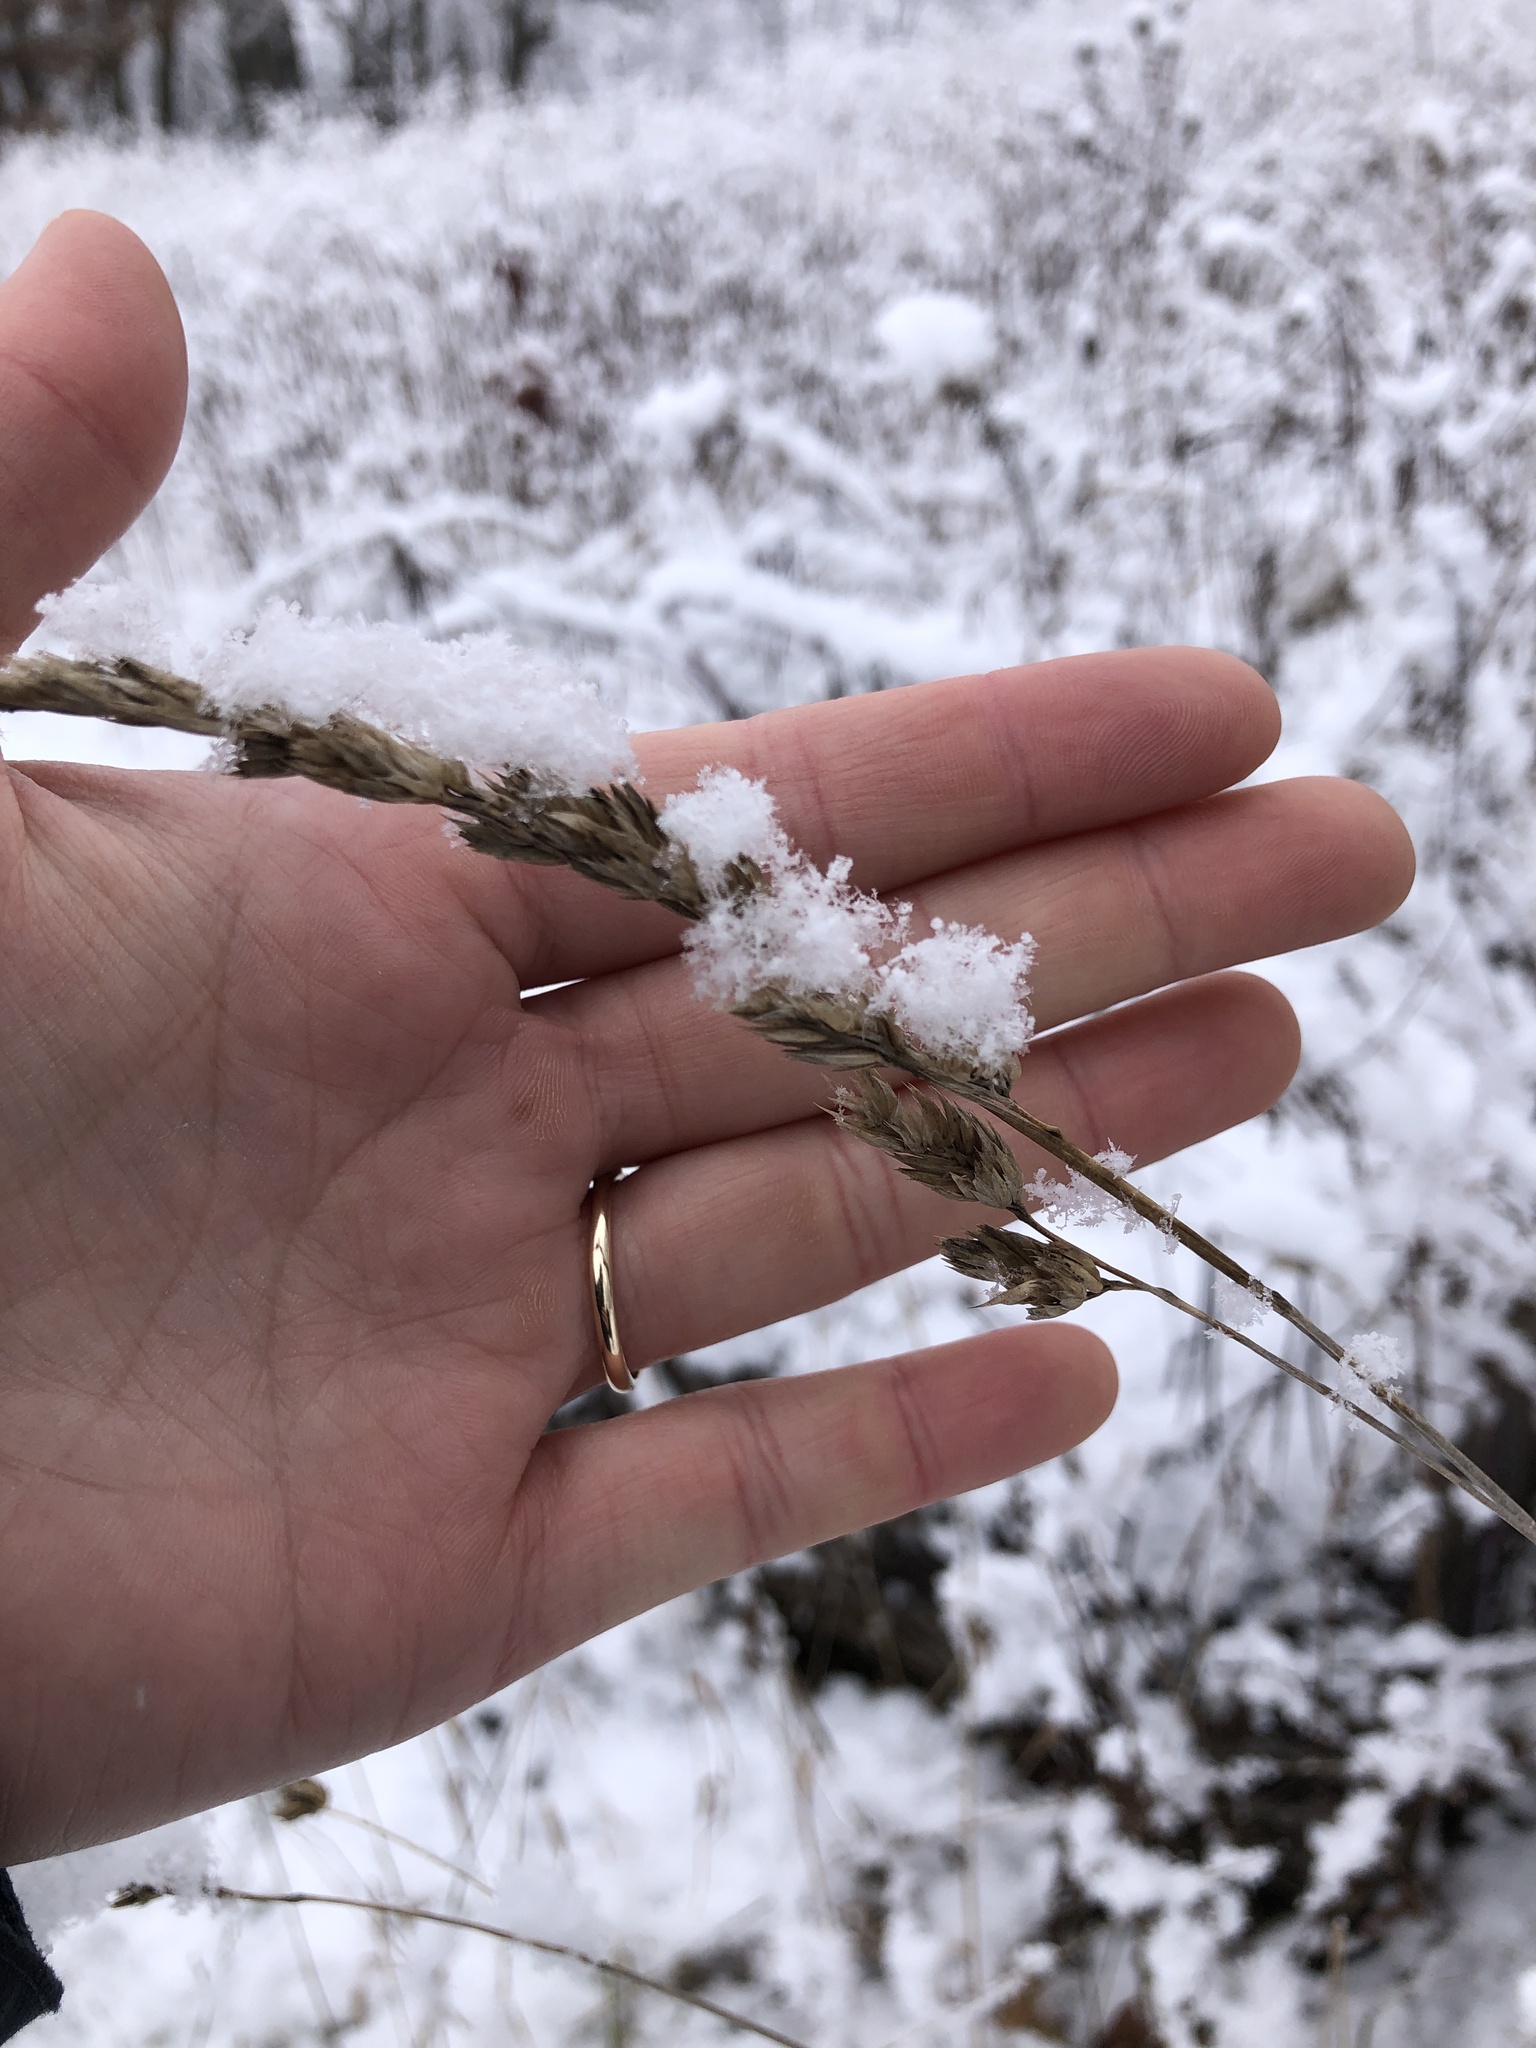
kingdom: Plantae
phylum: Tracheophyta
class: Liliopsida
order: Poales
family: Poaceae
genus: Dactylis
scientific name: Dactylis glomerata
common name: Orchardgrass
